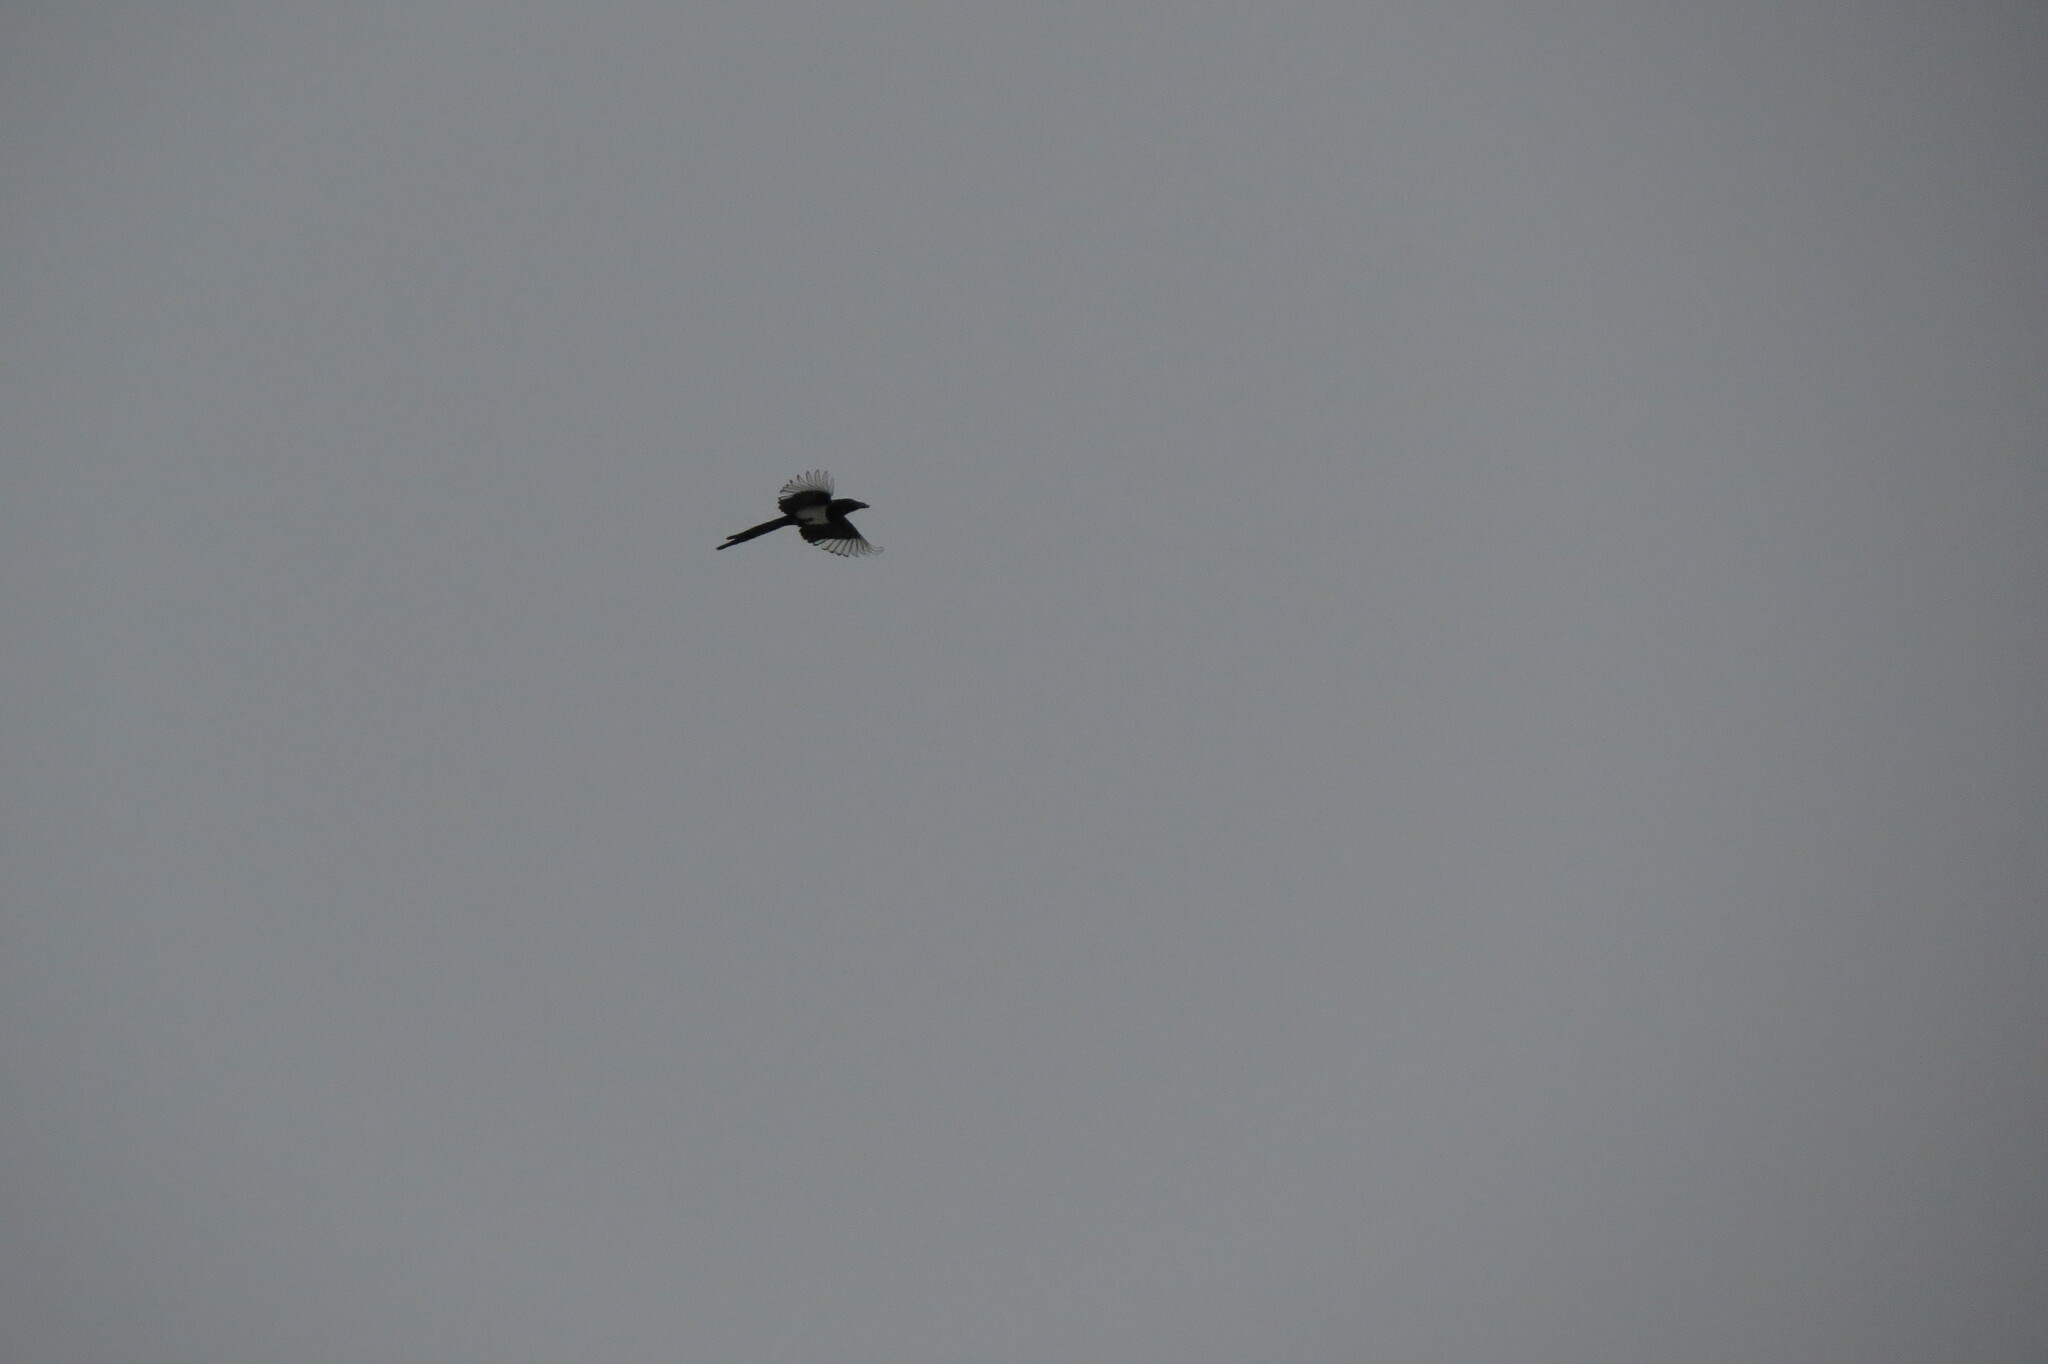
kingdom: Animalia
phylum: Chordata
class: Aves
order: Passeriformes
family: Corvidae
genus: Pica
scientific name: Pica pica
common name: Eurasian magpie
